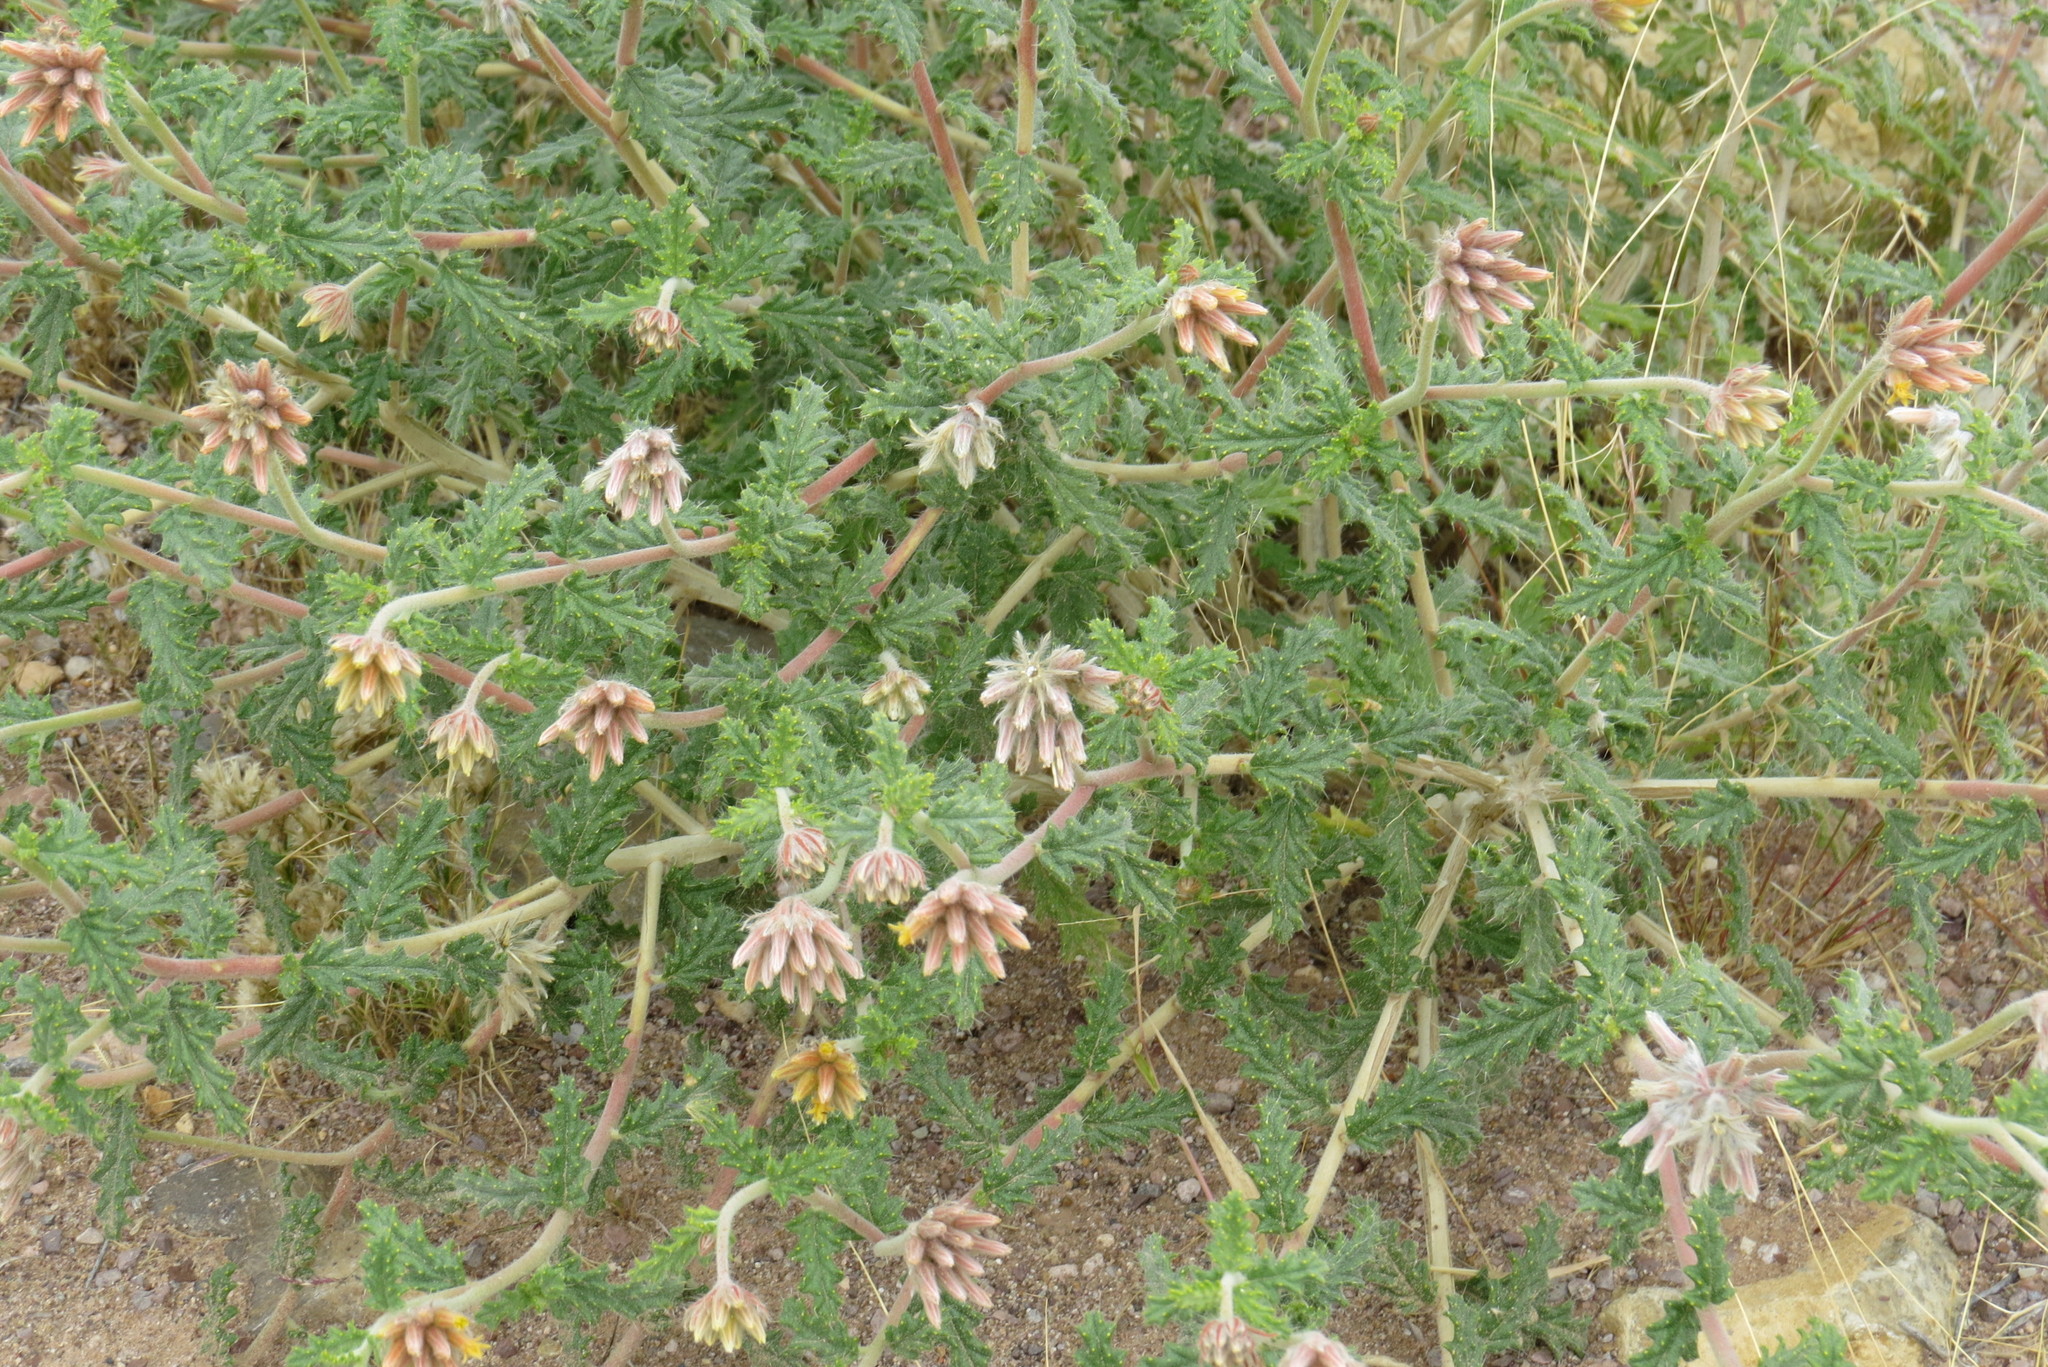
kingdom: Plantae
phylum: Tracheophyta
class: Magnoliopsida
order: Cornales
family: Loasaceae
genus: Cevallia
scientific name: Cevallia sinuata
